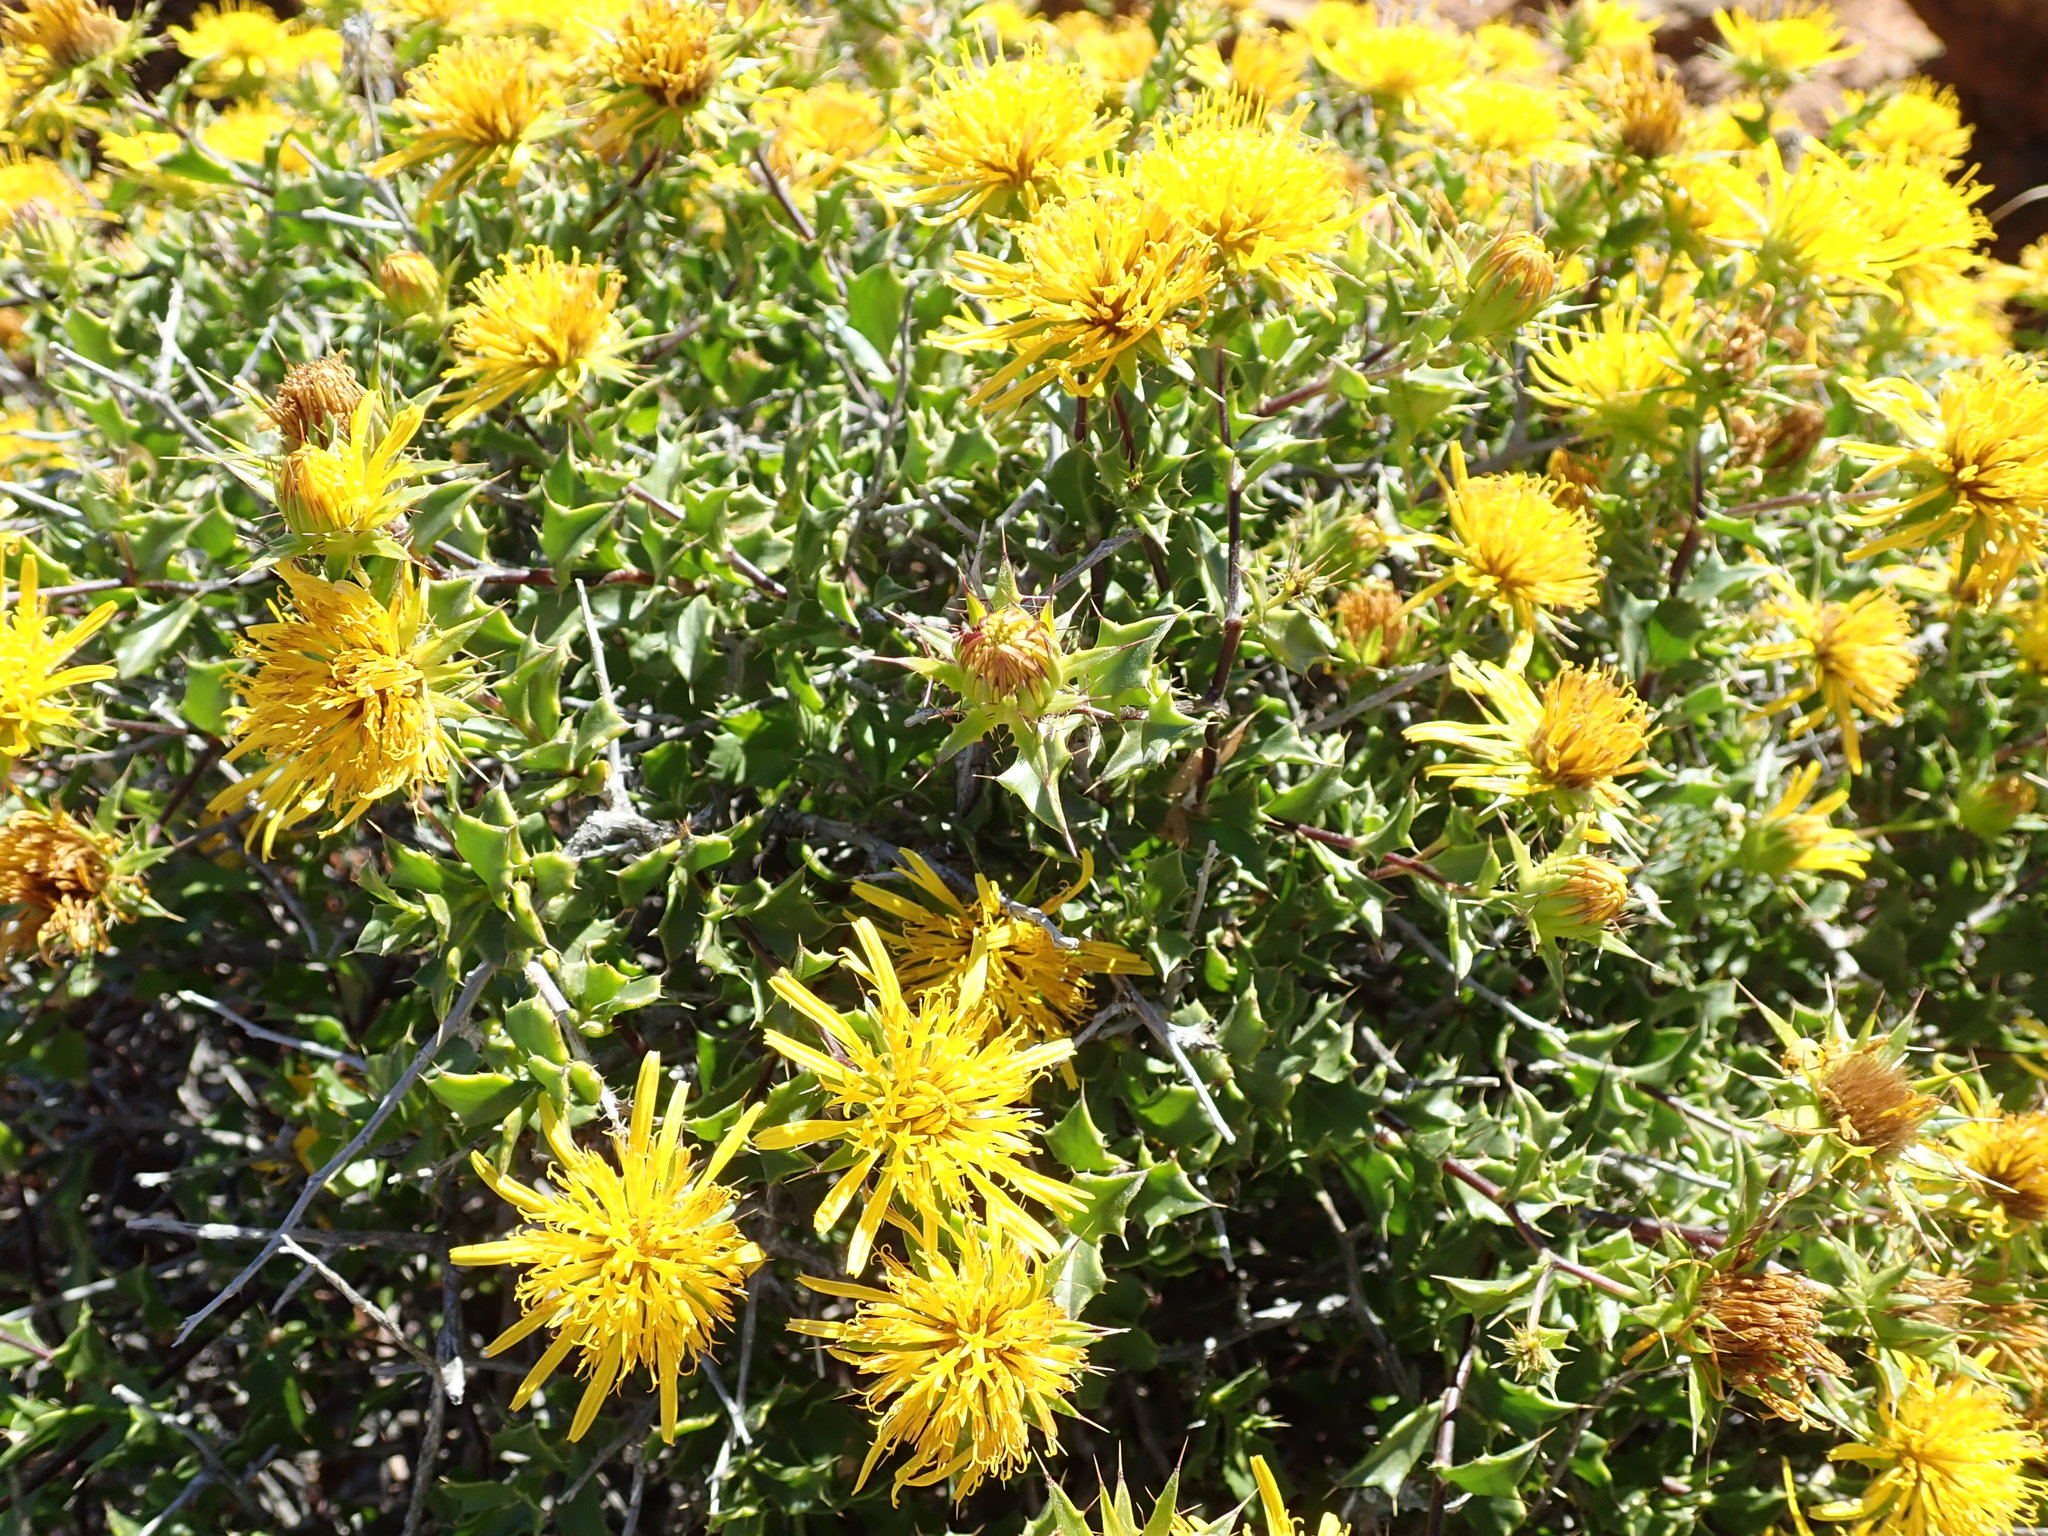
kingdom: Plantae
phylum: Tracheophyta
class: Magnoliopsida
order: Asterales
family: Asteraceae
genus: Berkheya
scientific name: Berkheya spinosa
